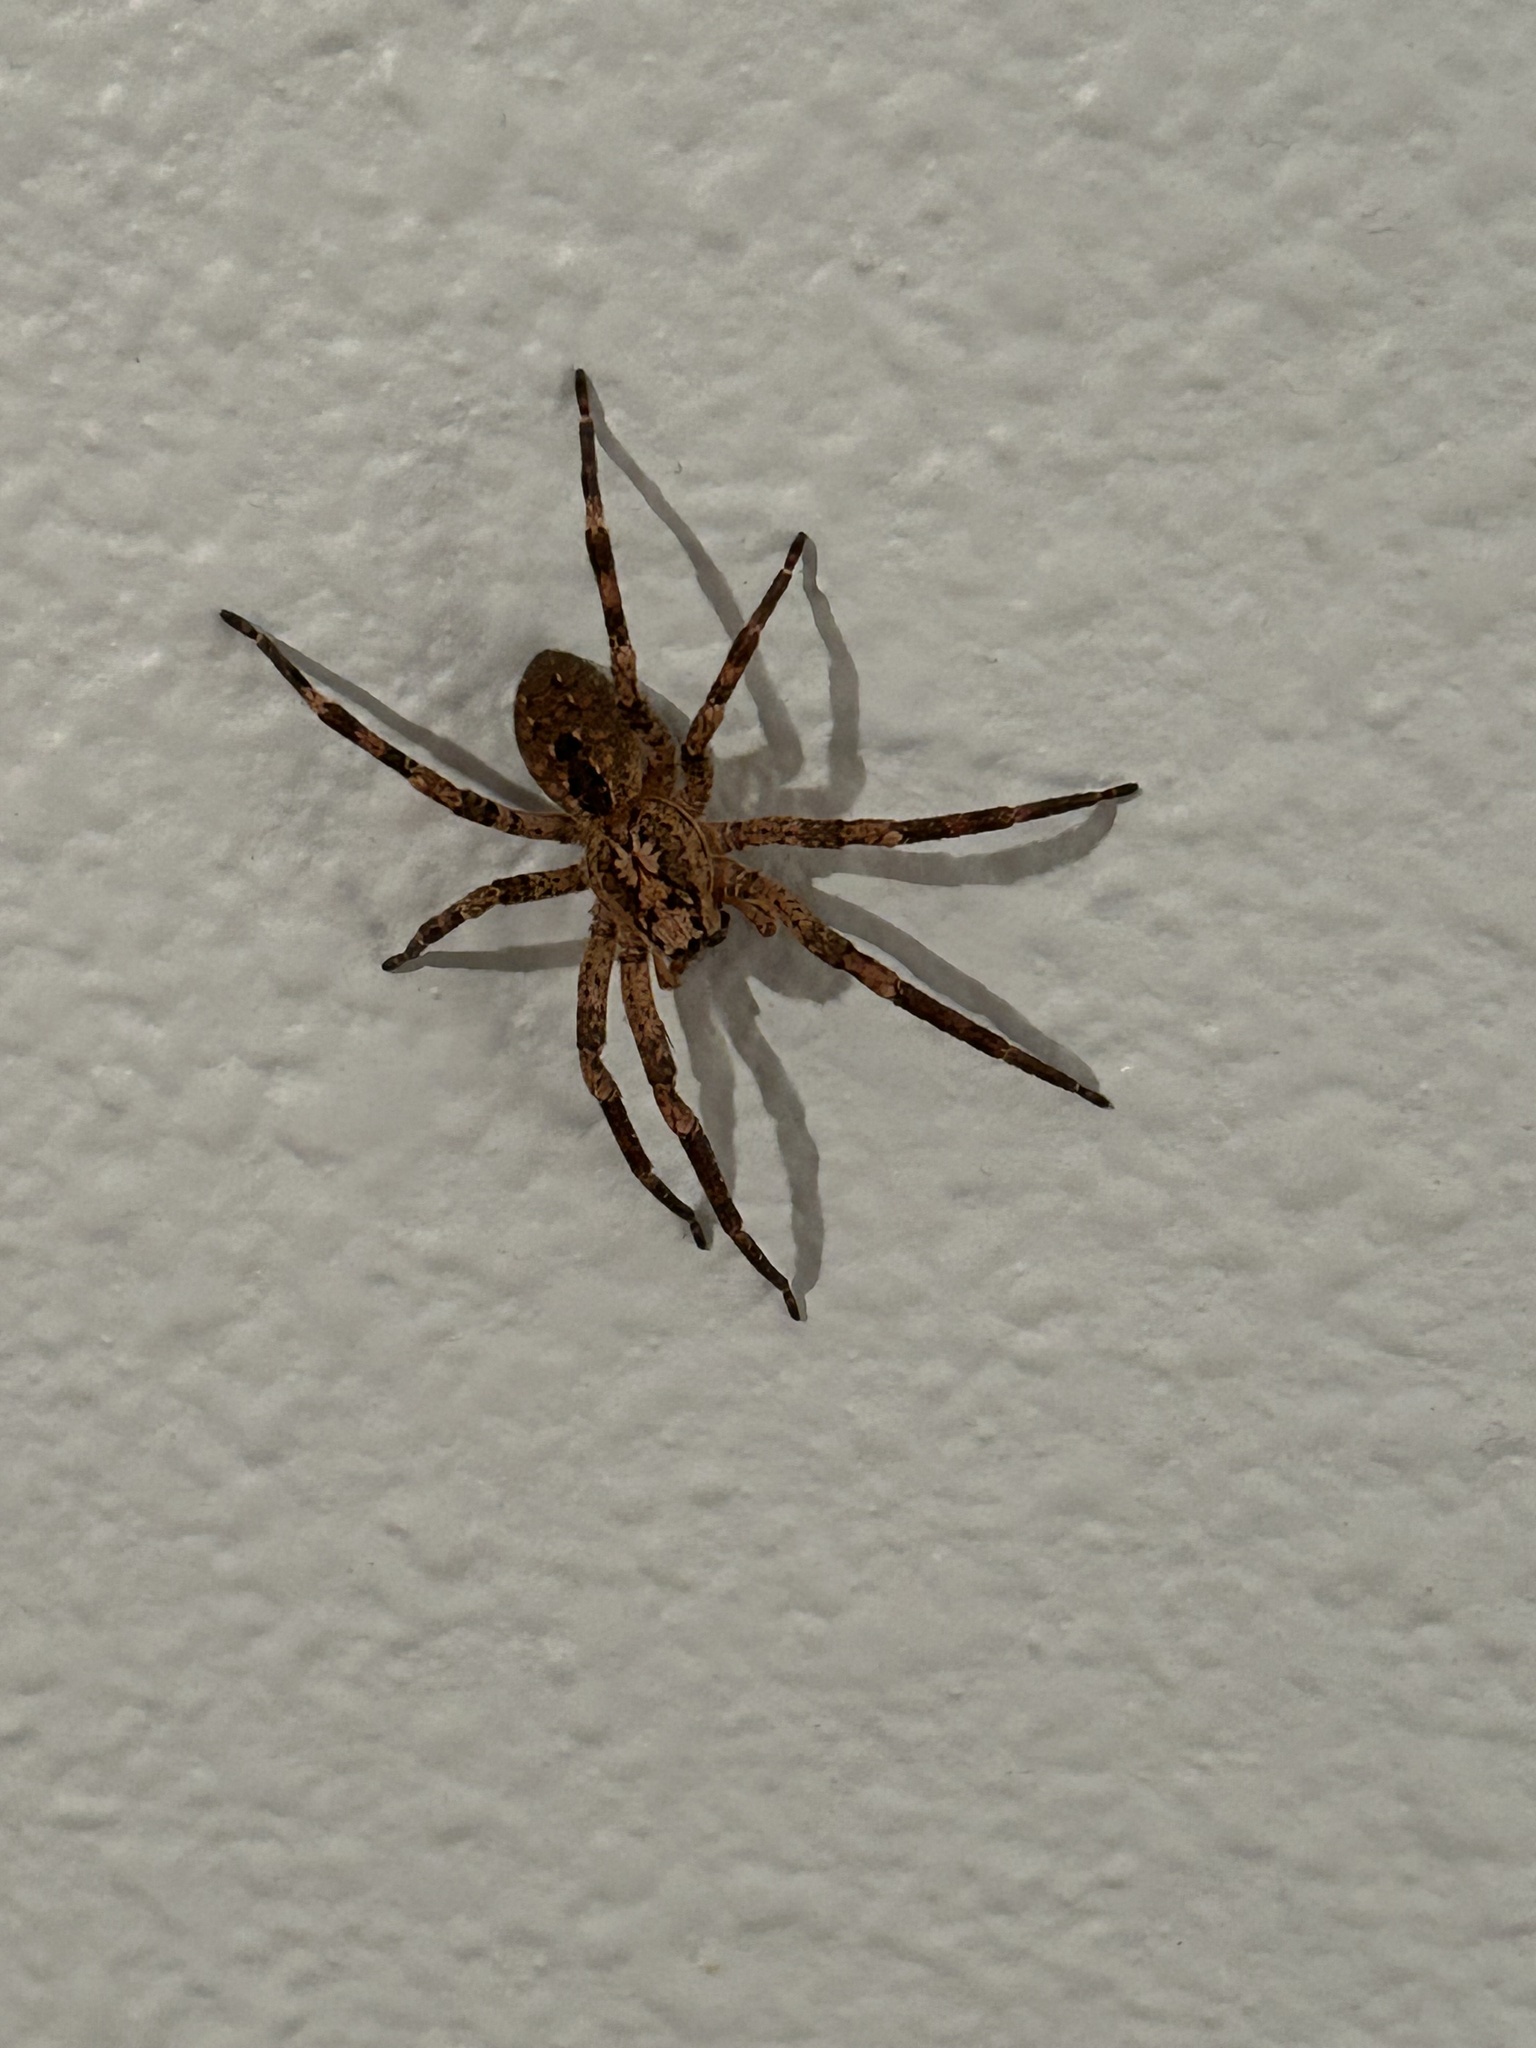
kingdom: Animalia
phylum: Arthropoda
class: Arachnida
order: Araneae
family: Zoropsidae
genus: Zoropsis
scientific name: Zoropsis spinimana
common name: Zoropsid spider
